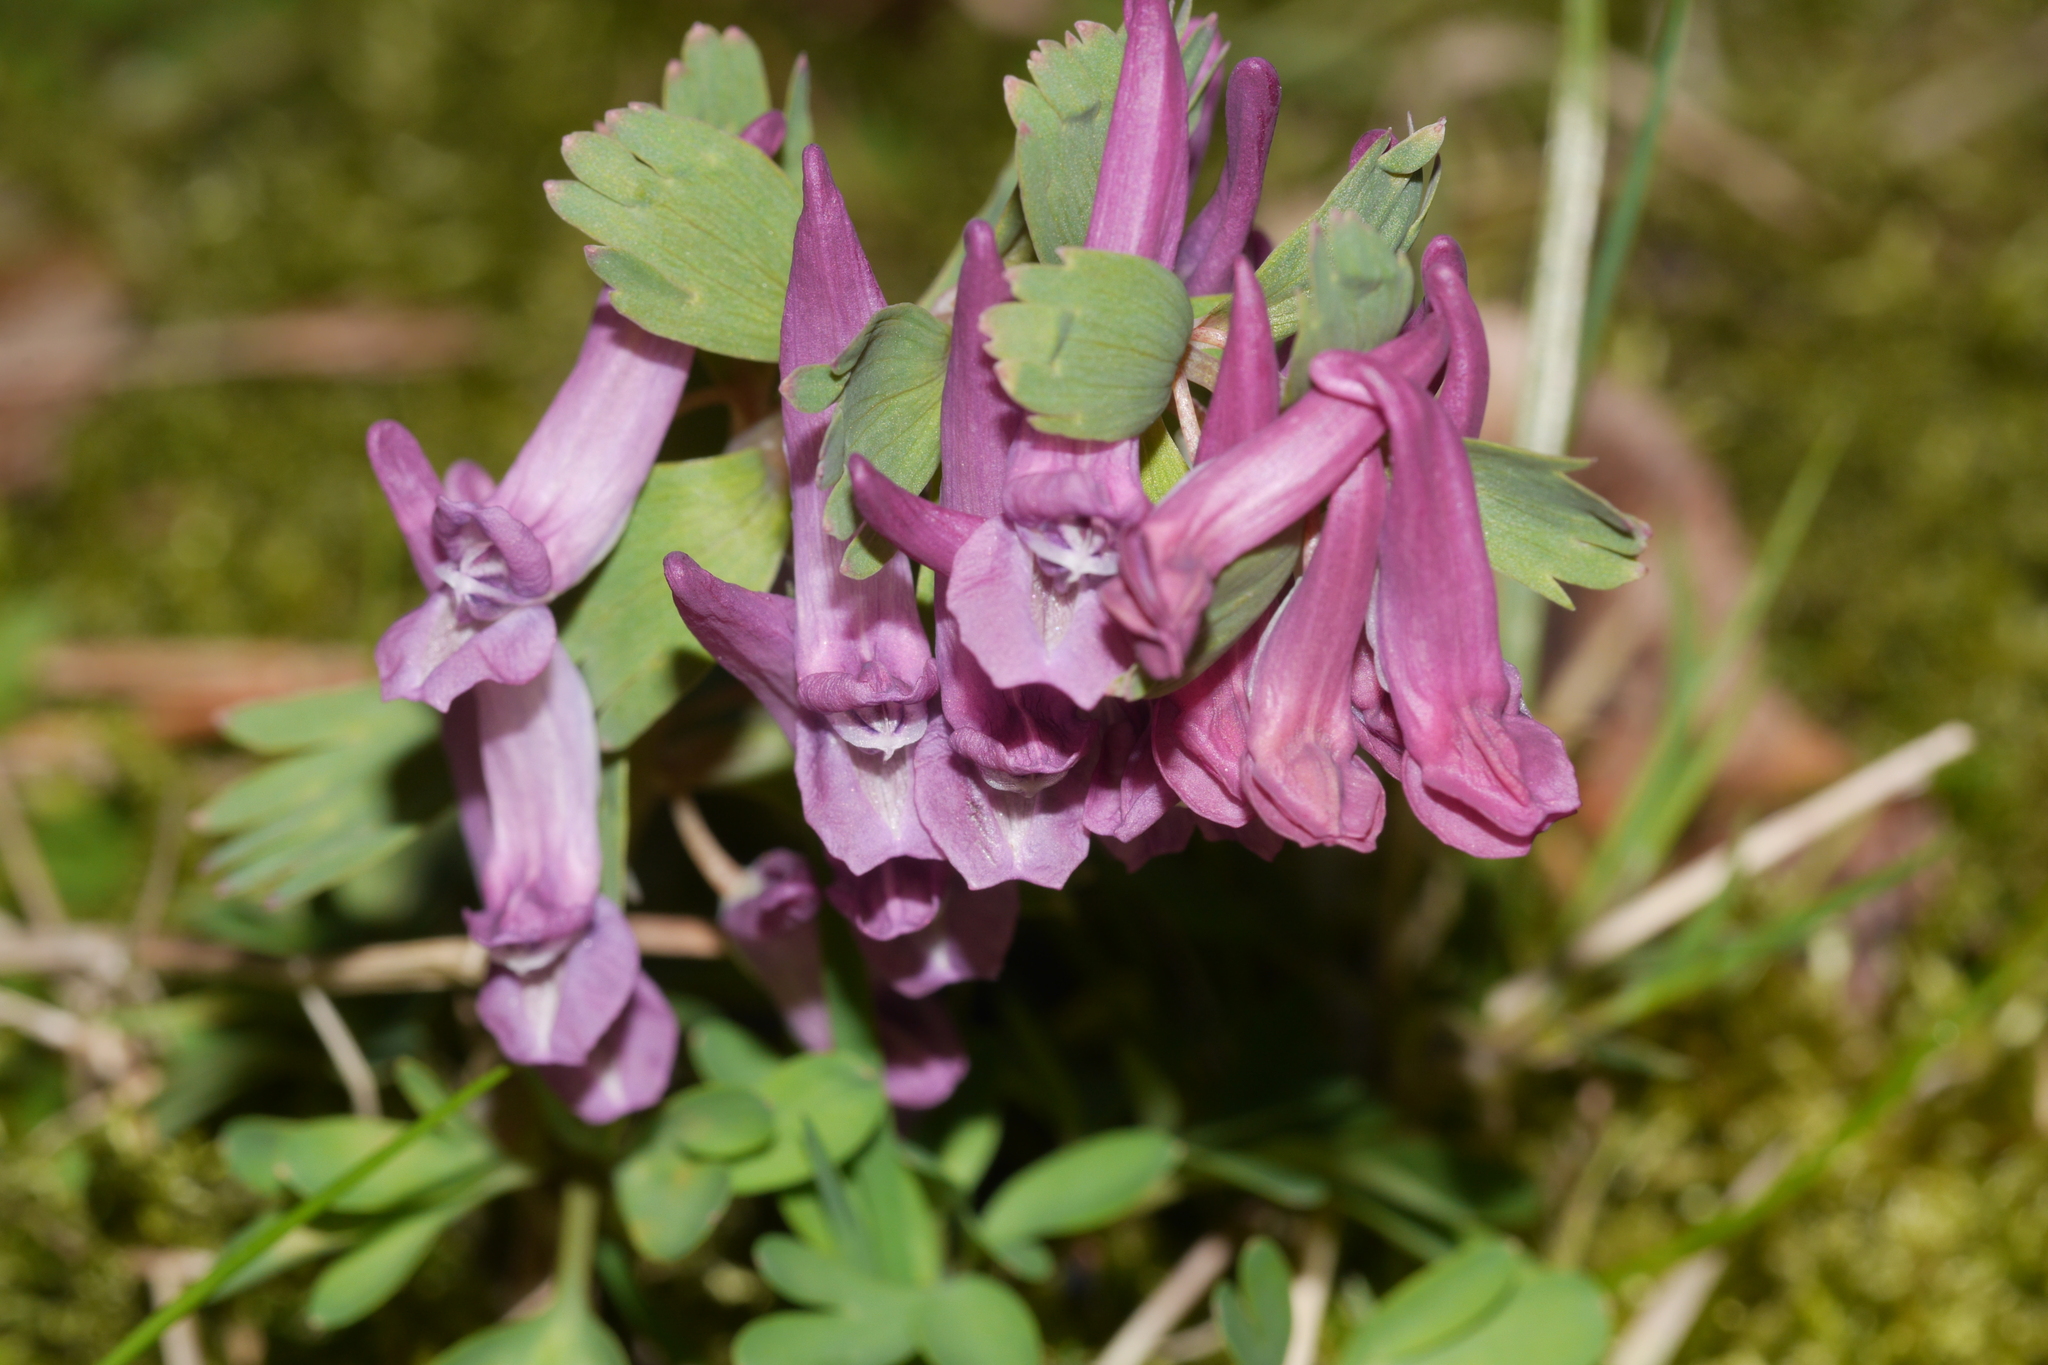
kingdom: Plantae
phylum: Tracheophyta
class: Magnoliopsida
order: Ranunculales
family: Papaveraceae
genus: Corydalis
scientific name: Corydalis solida
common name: Bird-in-a-bush
